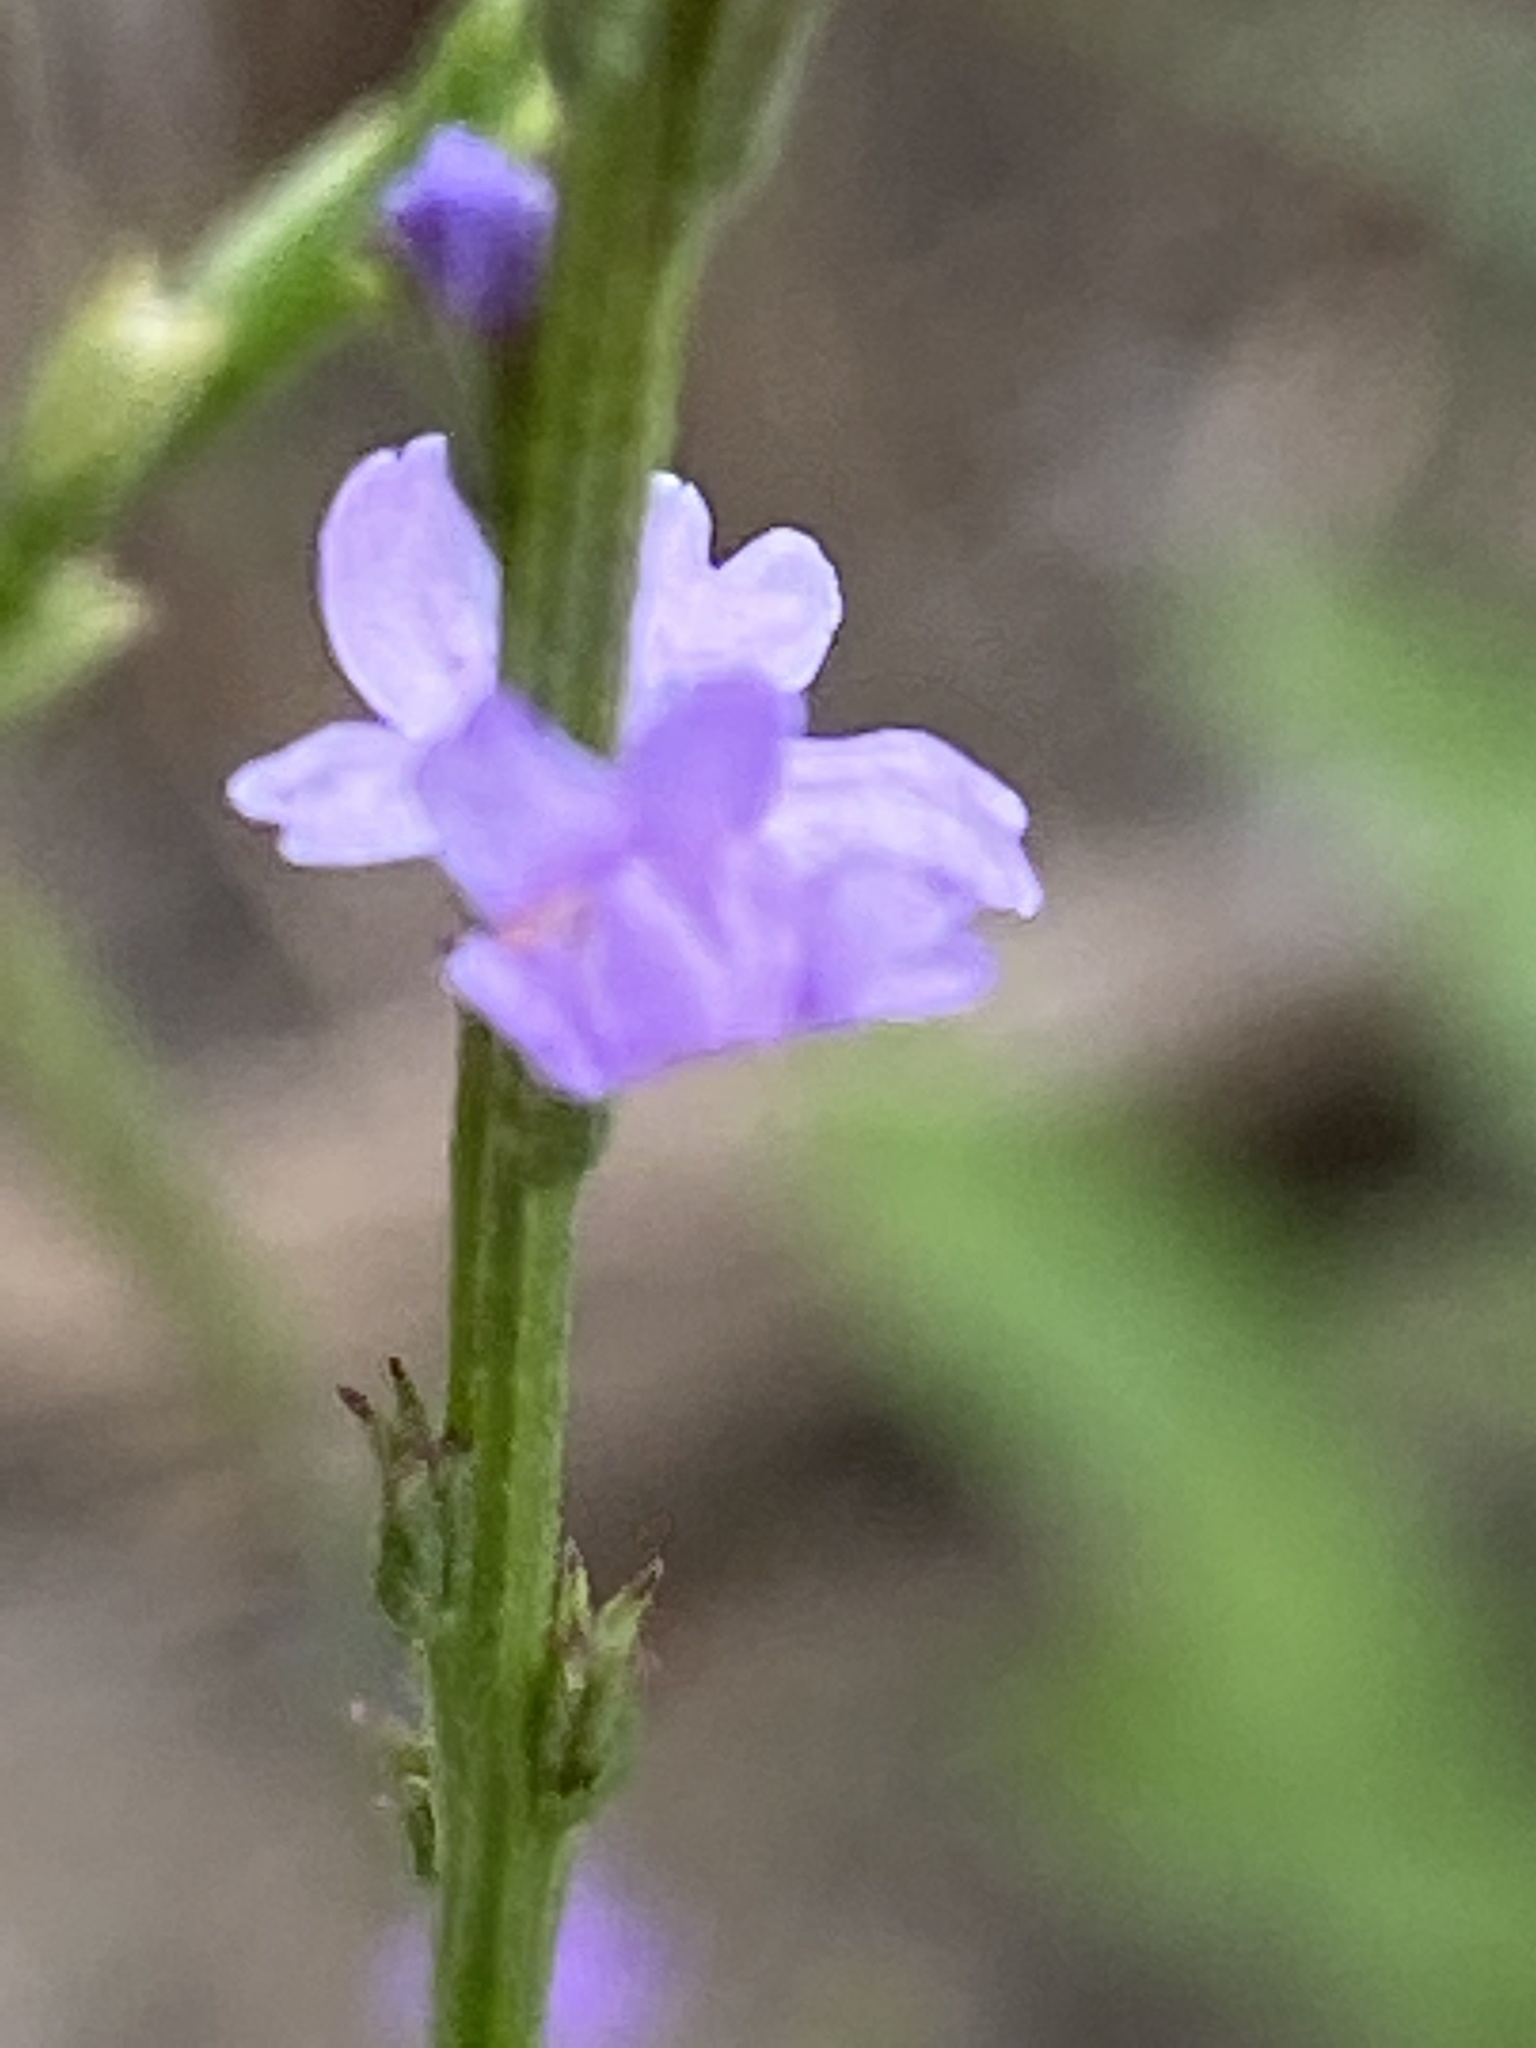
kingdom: Plantae
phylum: Tracheophyta
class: Magnoliopsida
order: Lamiales
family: Verbenaceae
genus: Verbena
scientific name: Verbena halei
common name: Texas vervain
